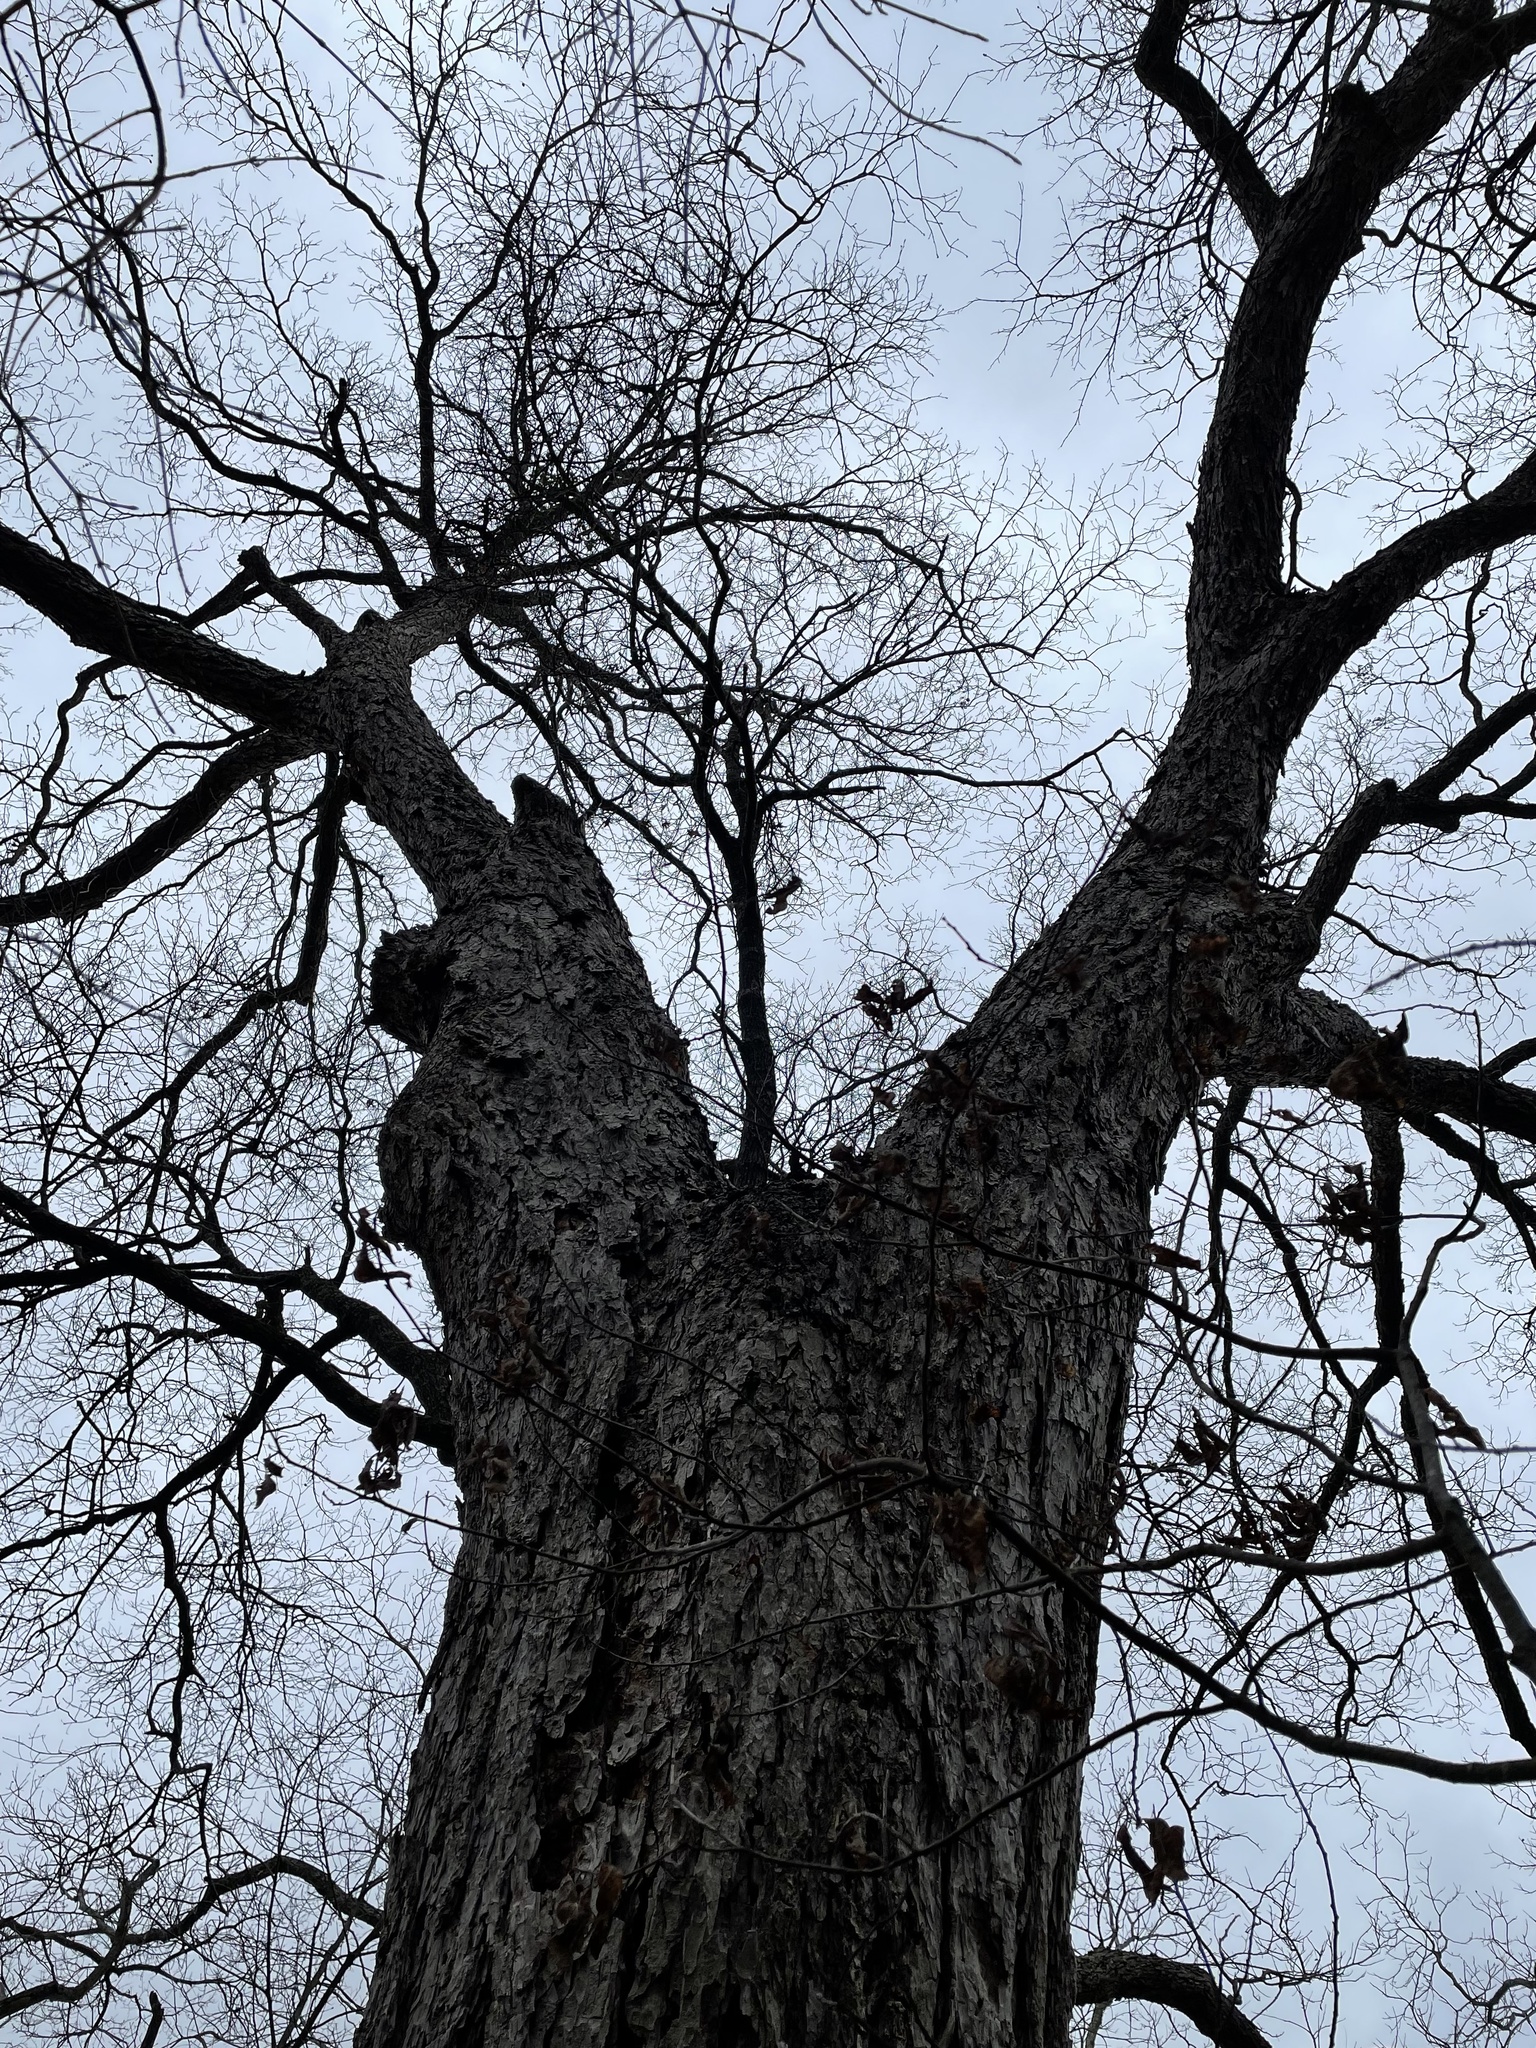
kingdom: Plantae
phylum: Tracheophyta
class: Magnoliopsida
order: Fagales
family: Juglandaceae
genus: Carya
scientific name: Carya illinoinensis
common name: Pecan
